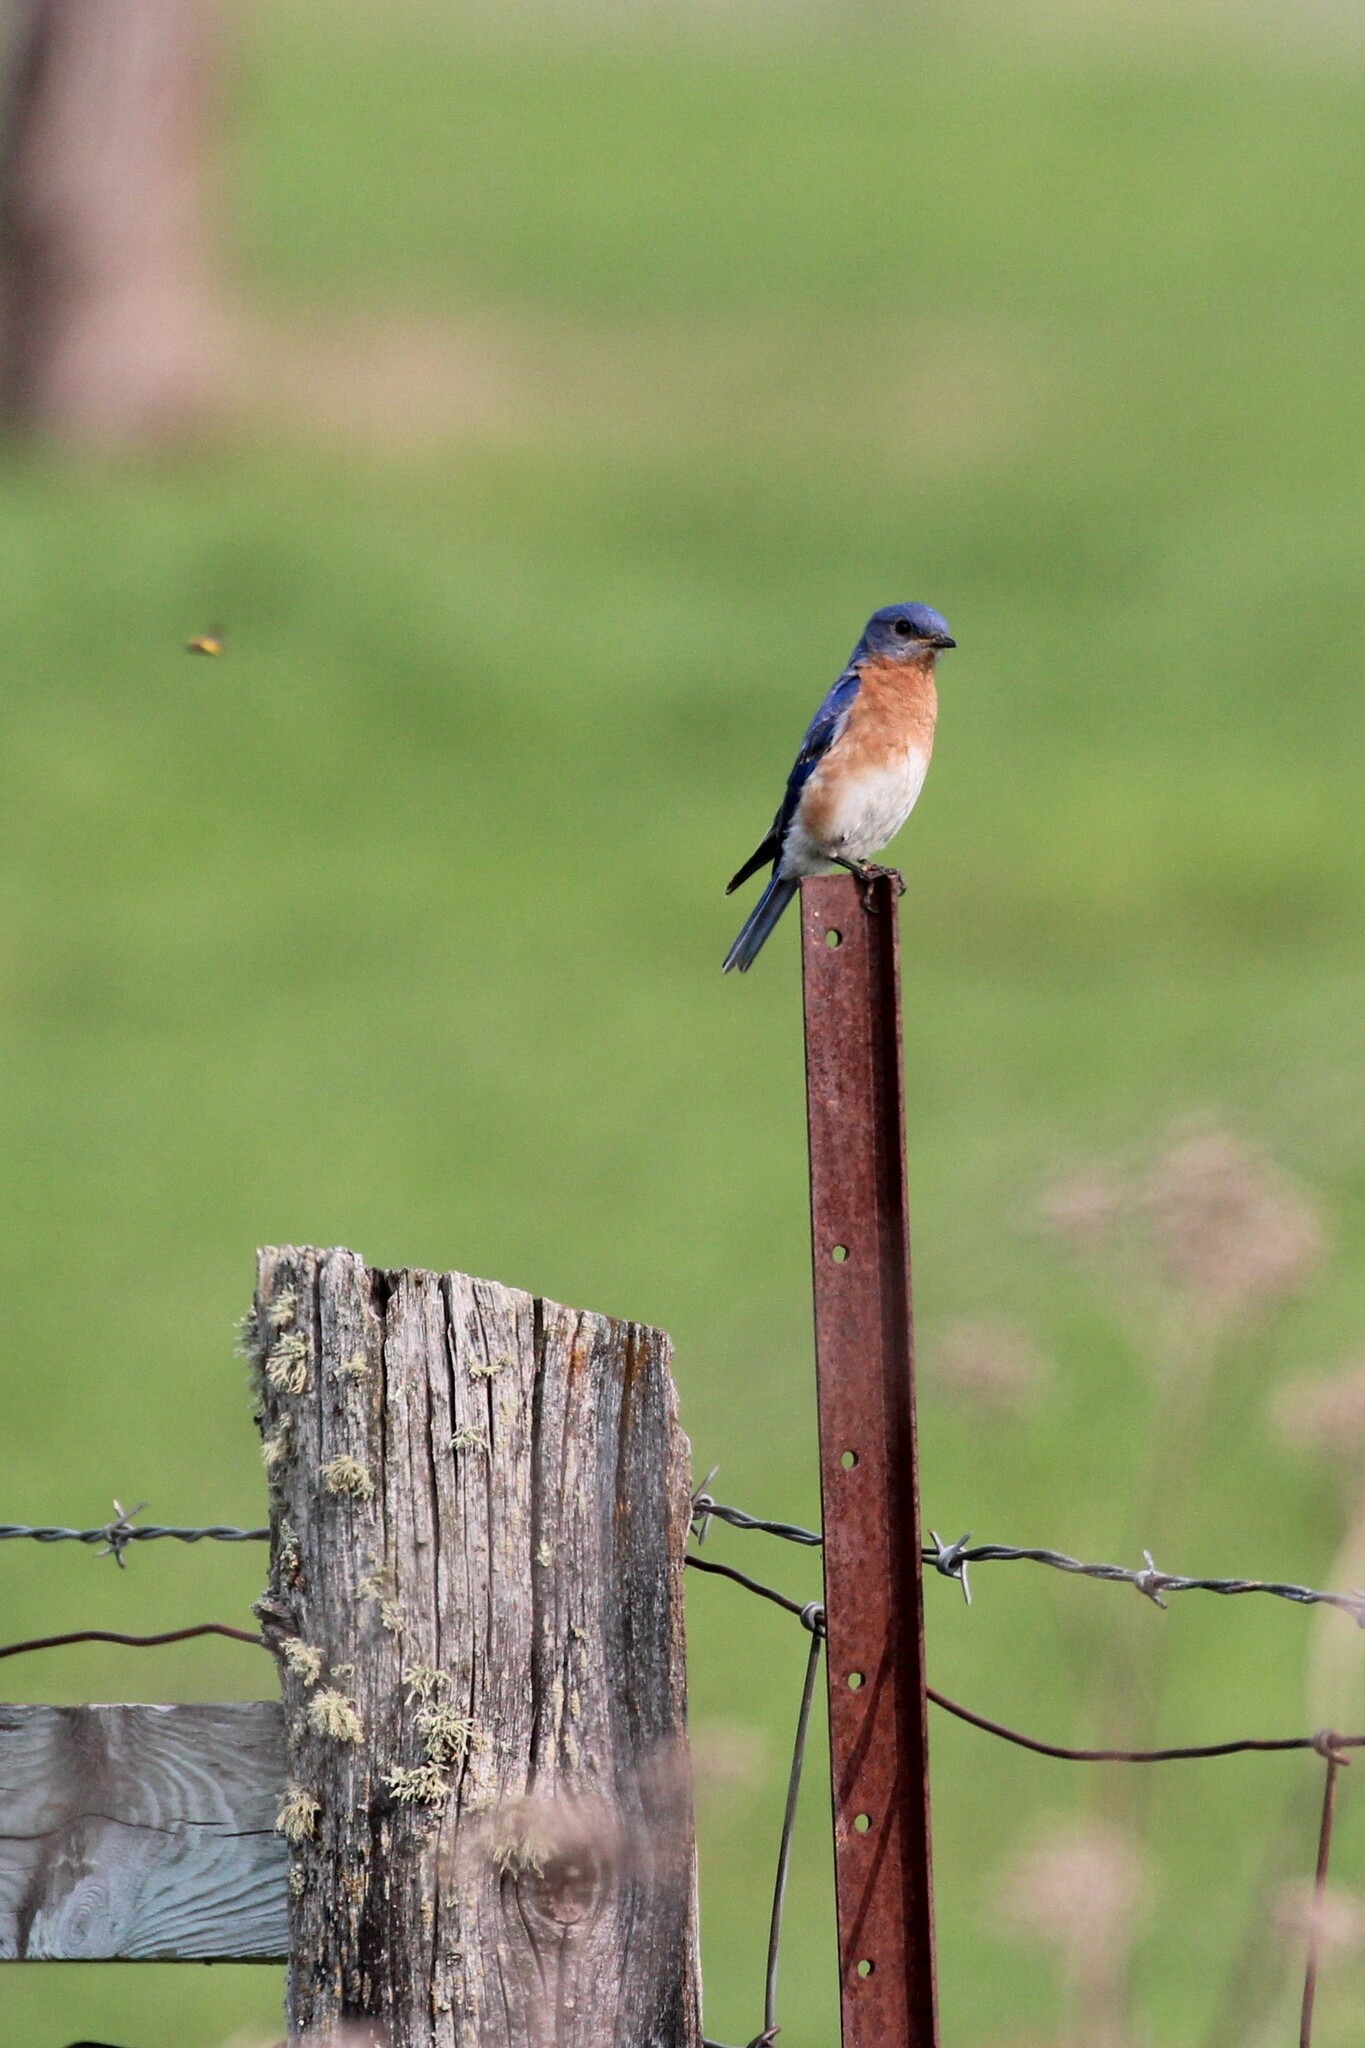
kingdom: Animalia
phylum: Chordata
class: Aves
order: Passeriformes
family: Turdidae
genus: Sialia
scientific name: Sialia sialis
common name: Eastern bluebird
